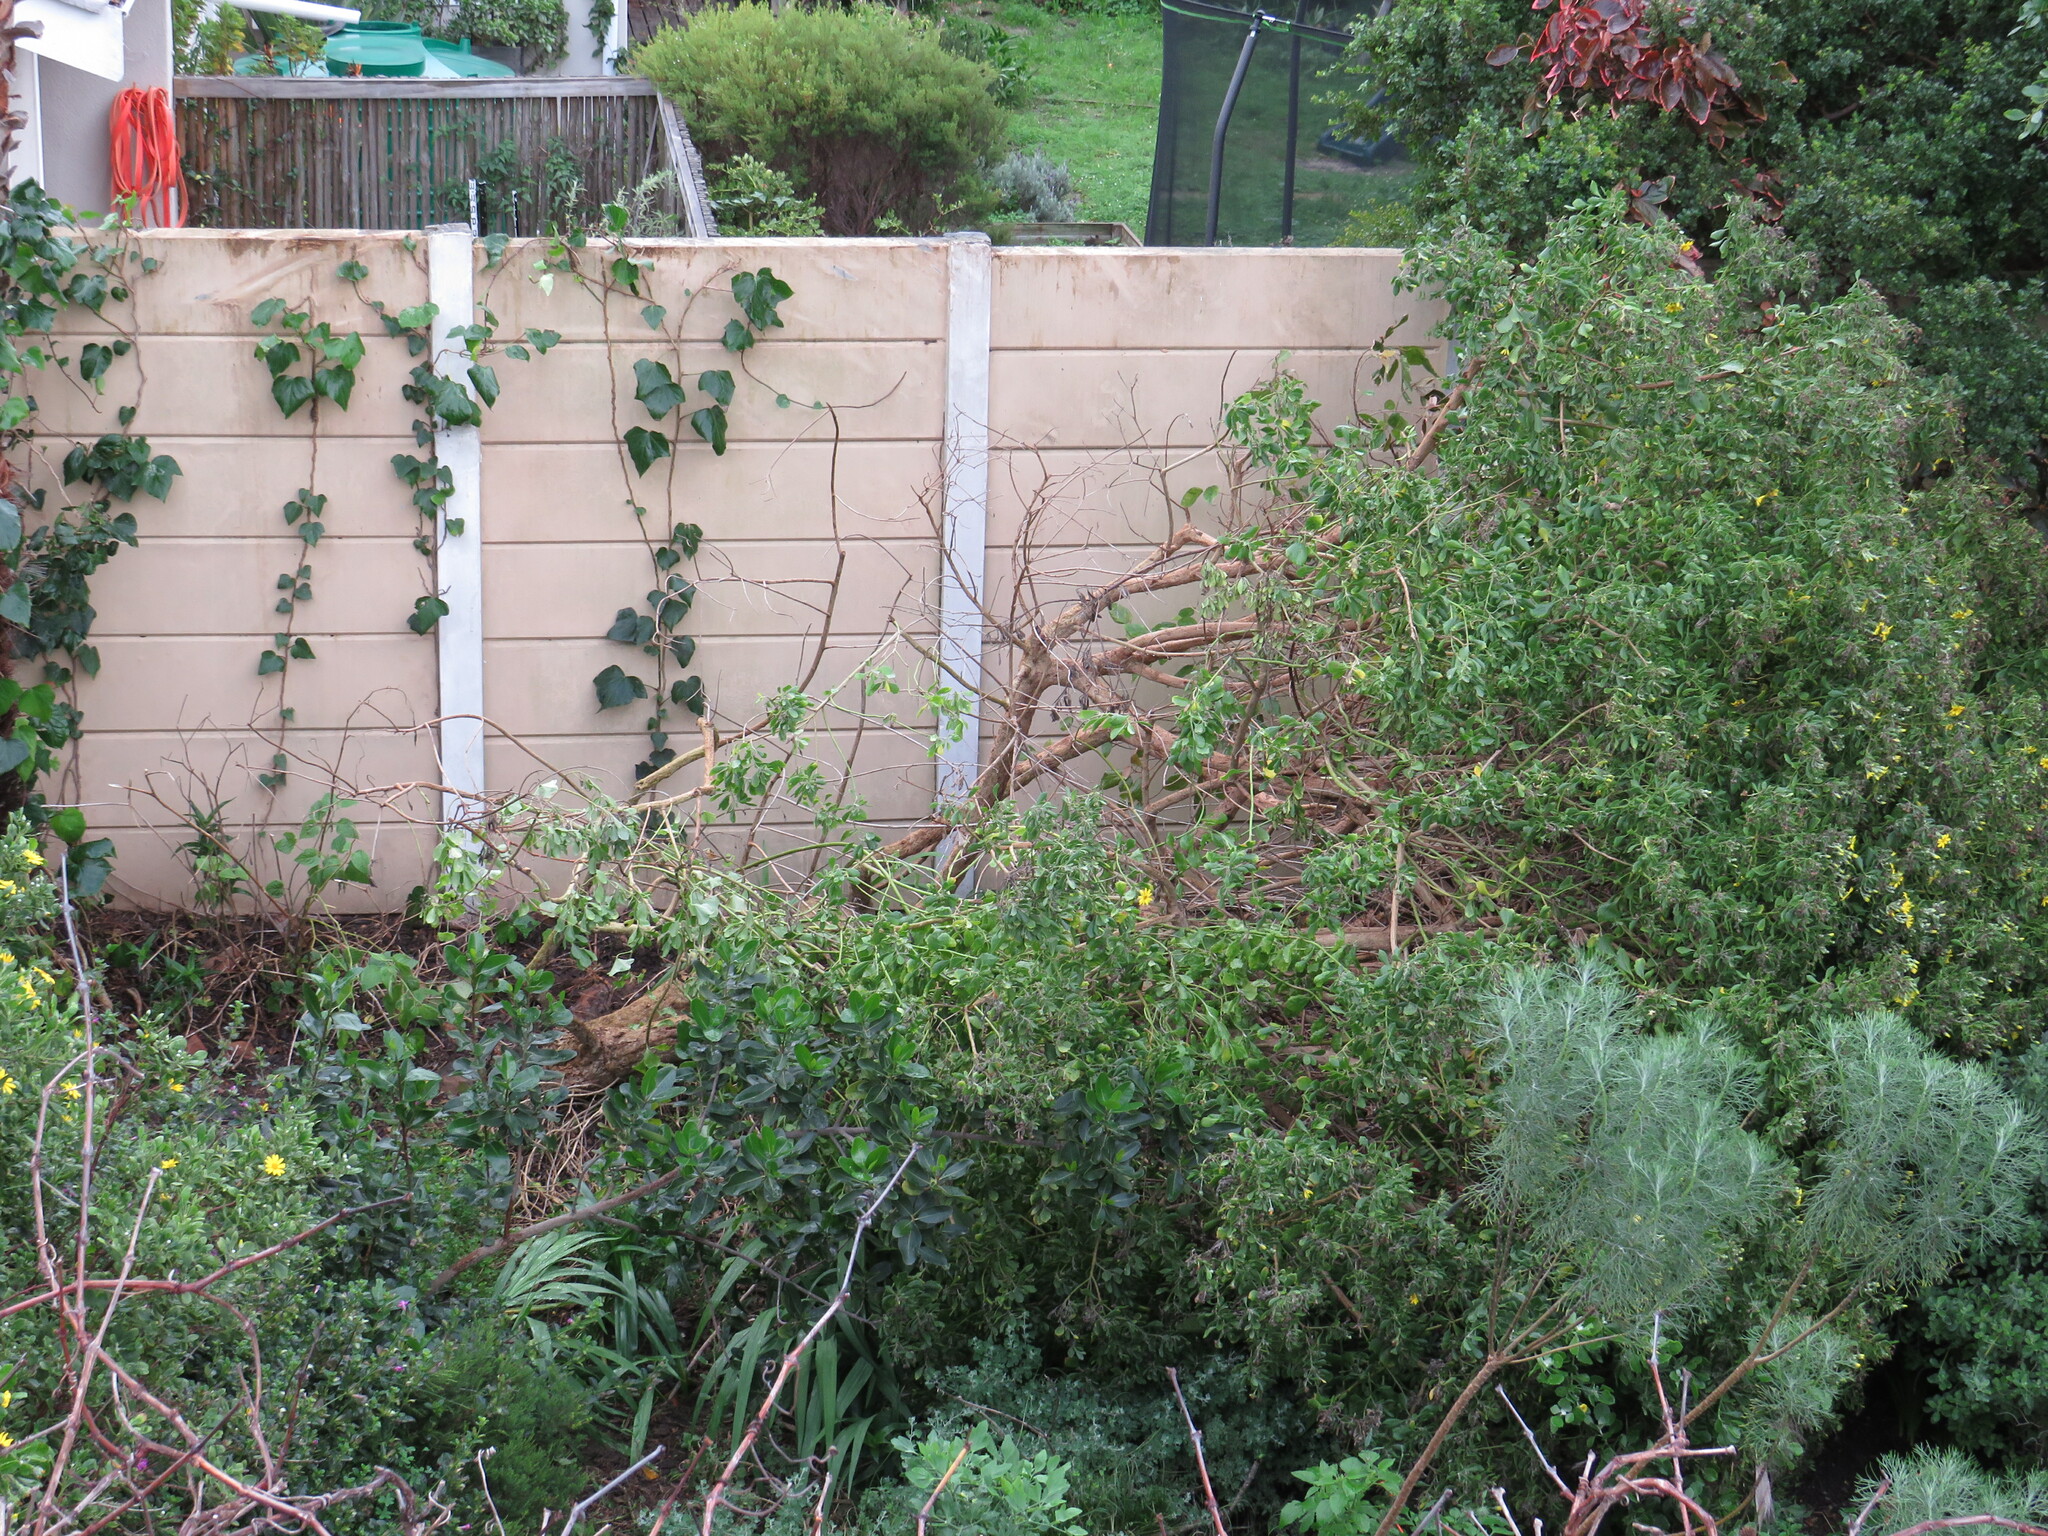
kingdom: Plantae
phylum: Tracheophyta
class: Magnoliopsida
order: Asterales
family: Asteraceae
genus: Osteospermum
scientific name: Osteospermum moniliferum
